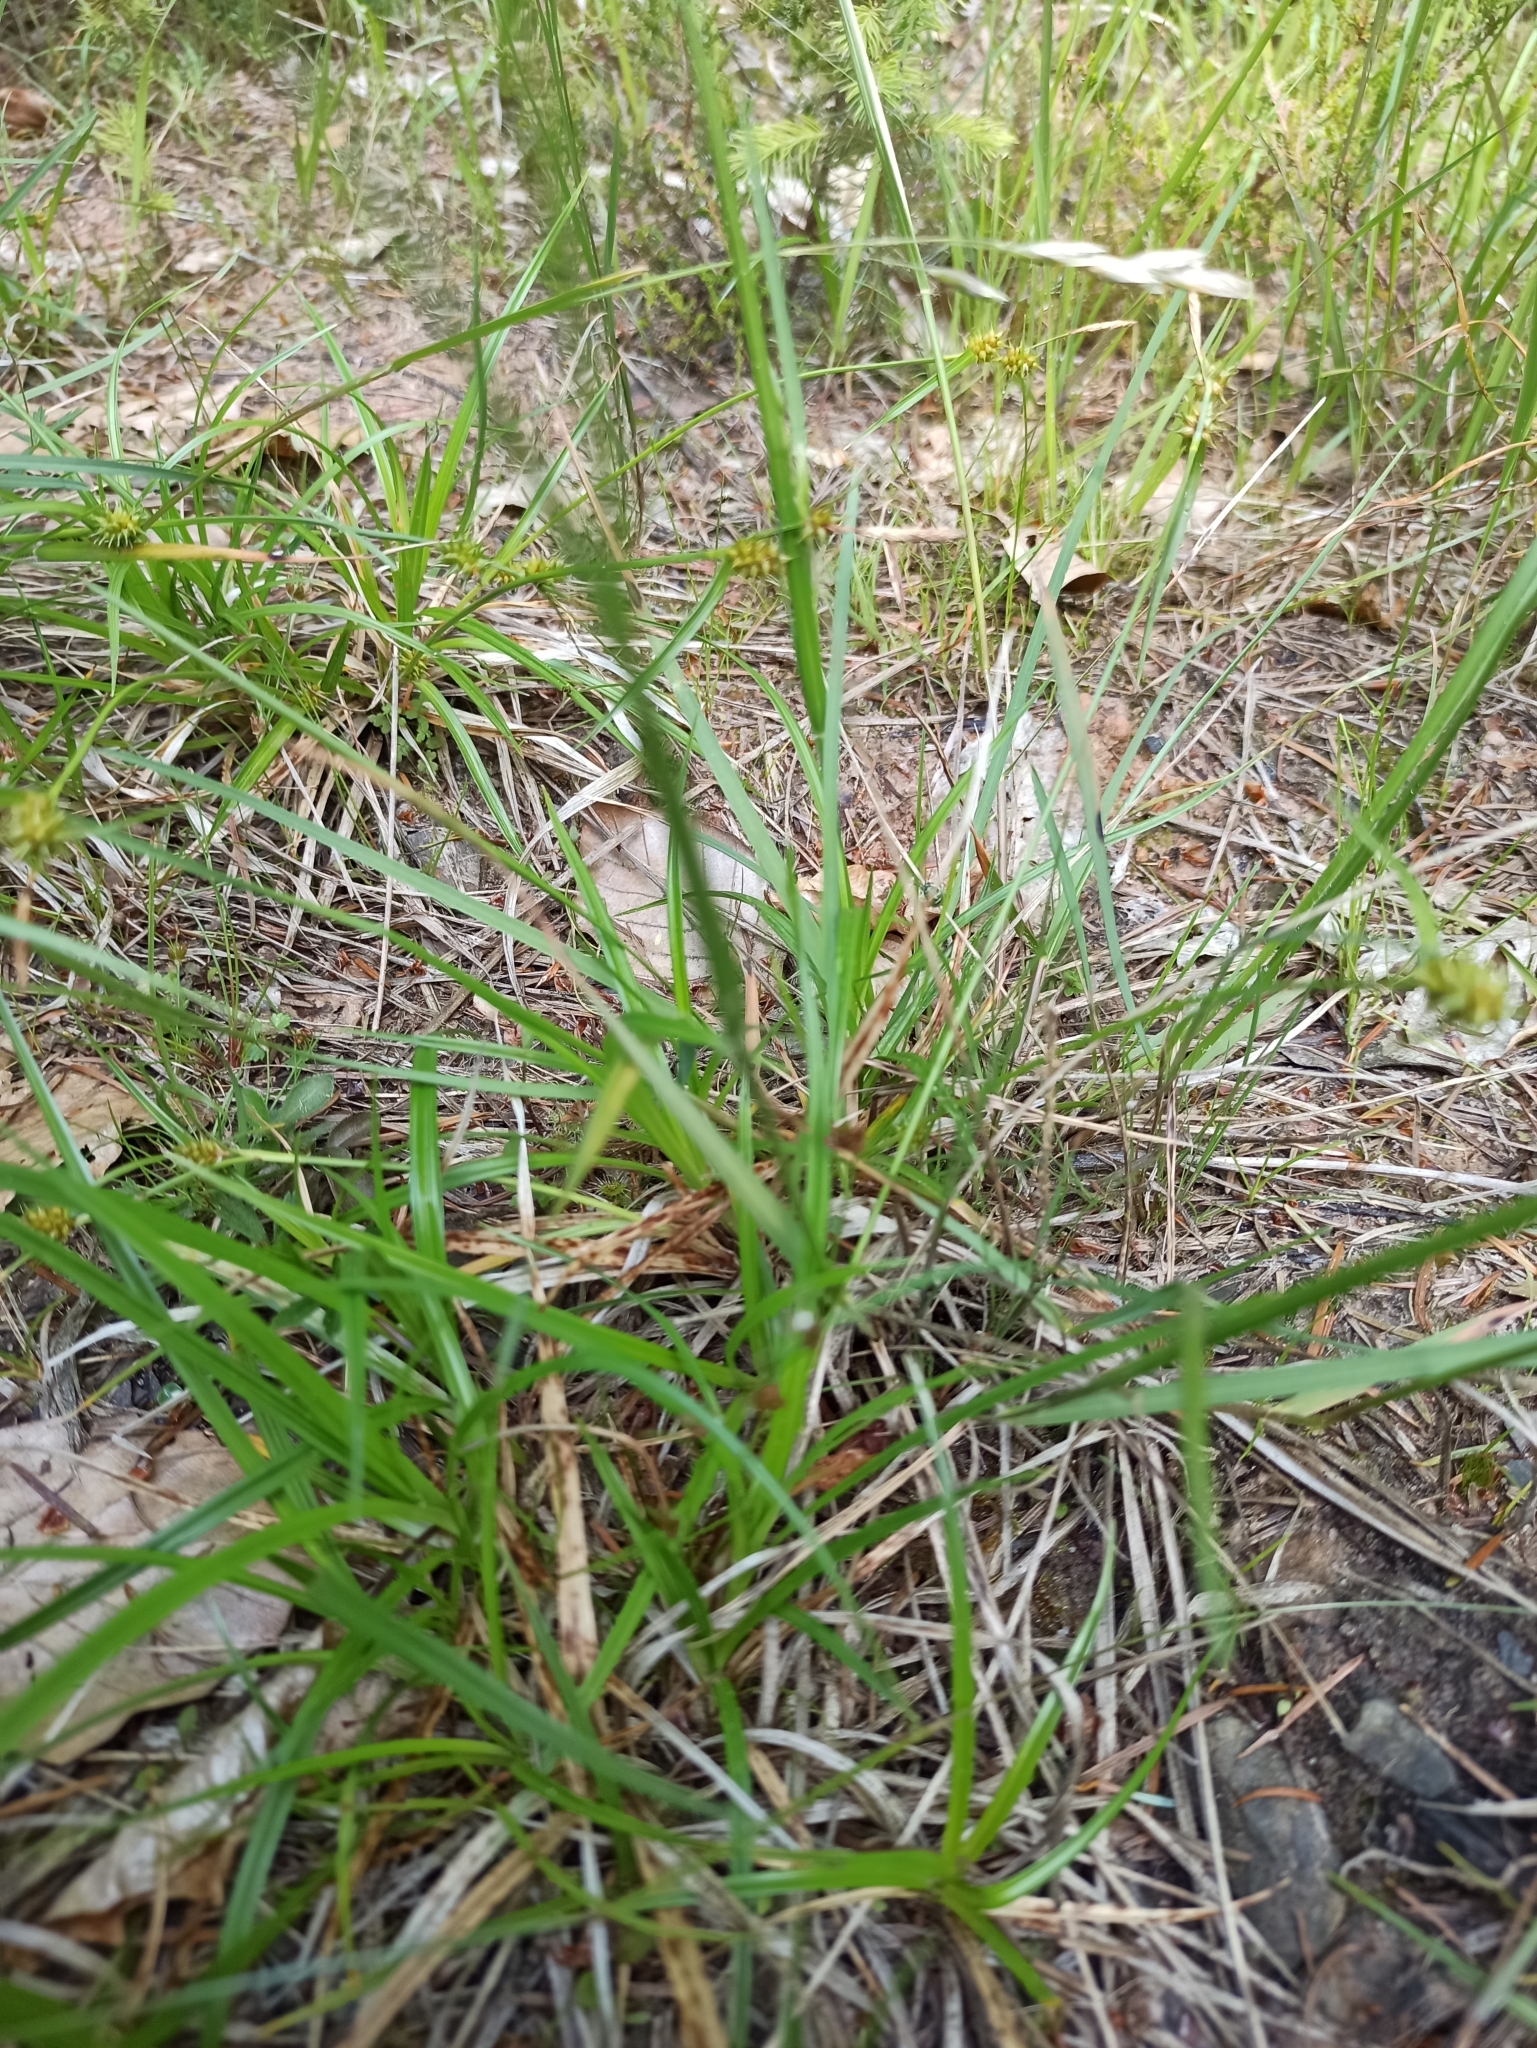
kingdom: Plantae
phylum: Tracheophyta
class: Liliopsida
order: Poales
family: Poaceae
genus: Danthonia
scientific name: Danthonia decumbens
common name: Common heathgrass
